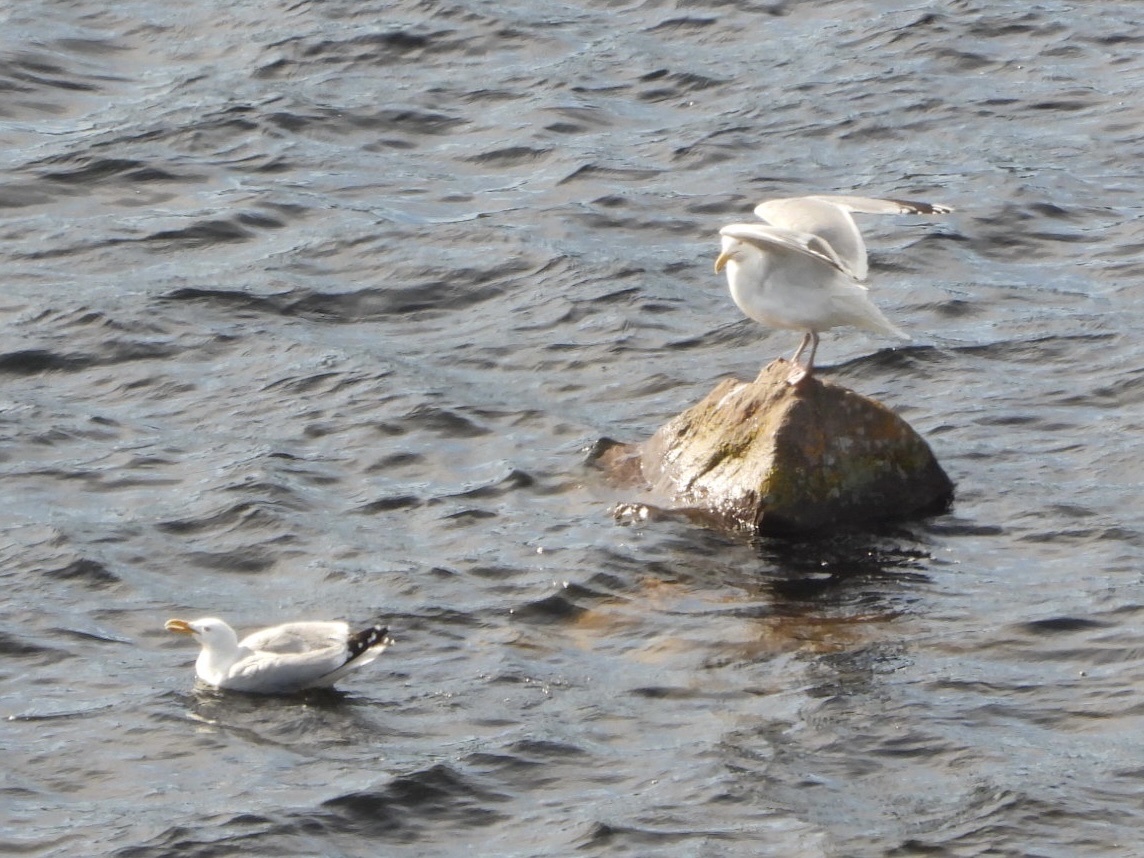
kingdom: Animalia
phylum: Chordata
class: Aves
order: Charadriiformes
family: Laridae
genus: Larus
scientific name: Larus argentatus
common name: Herring gull
